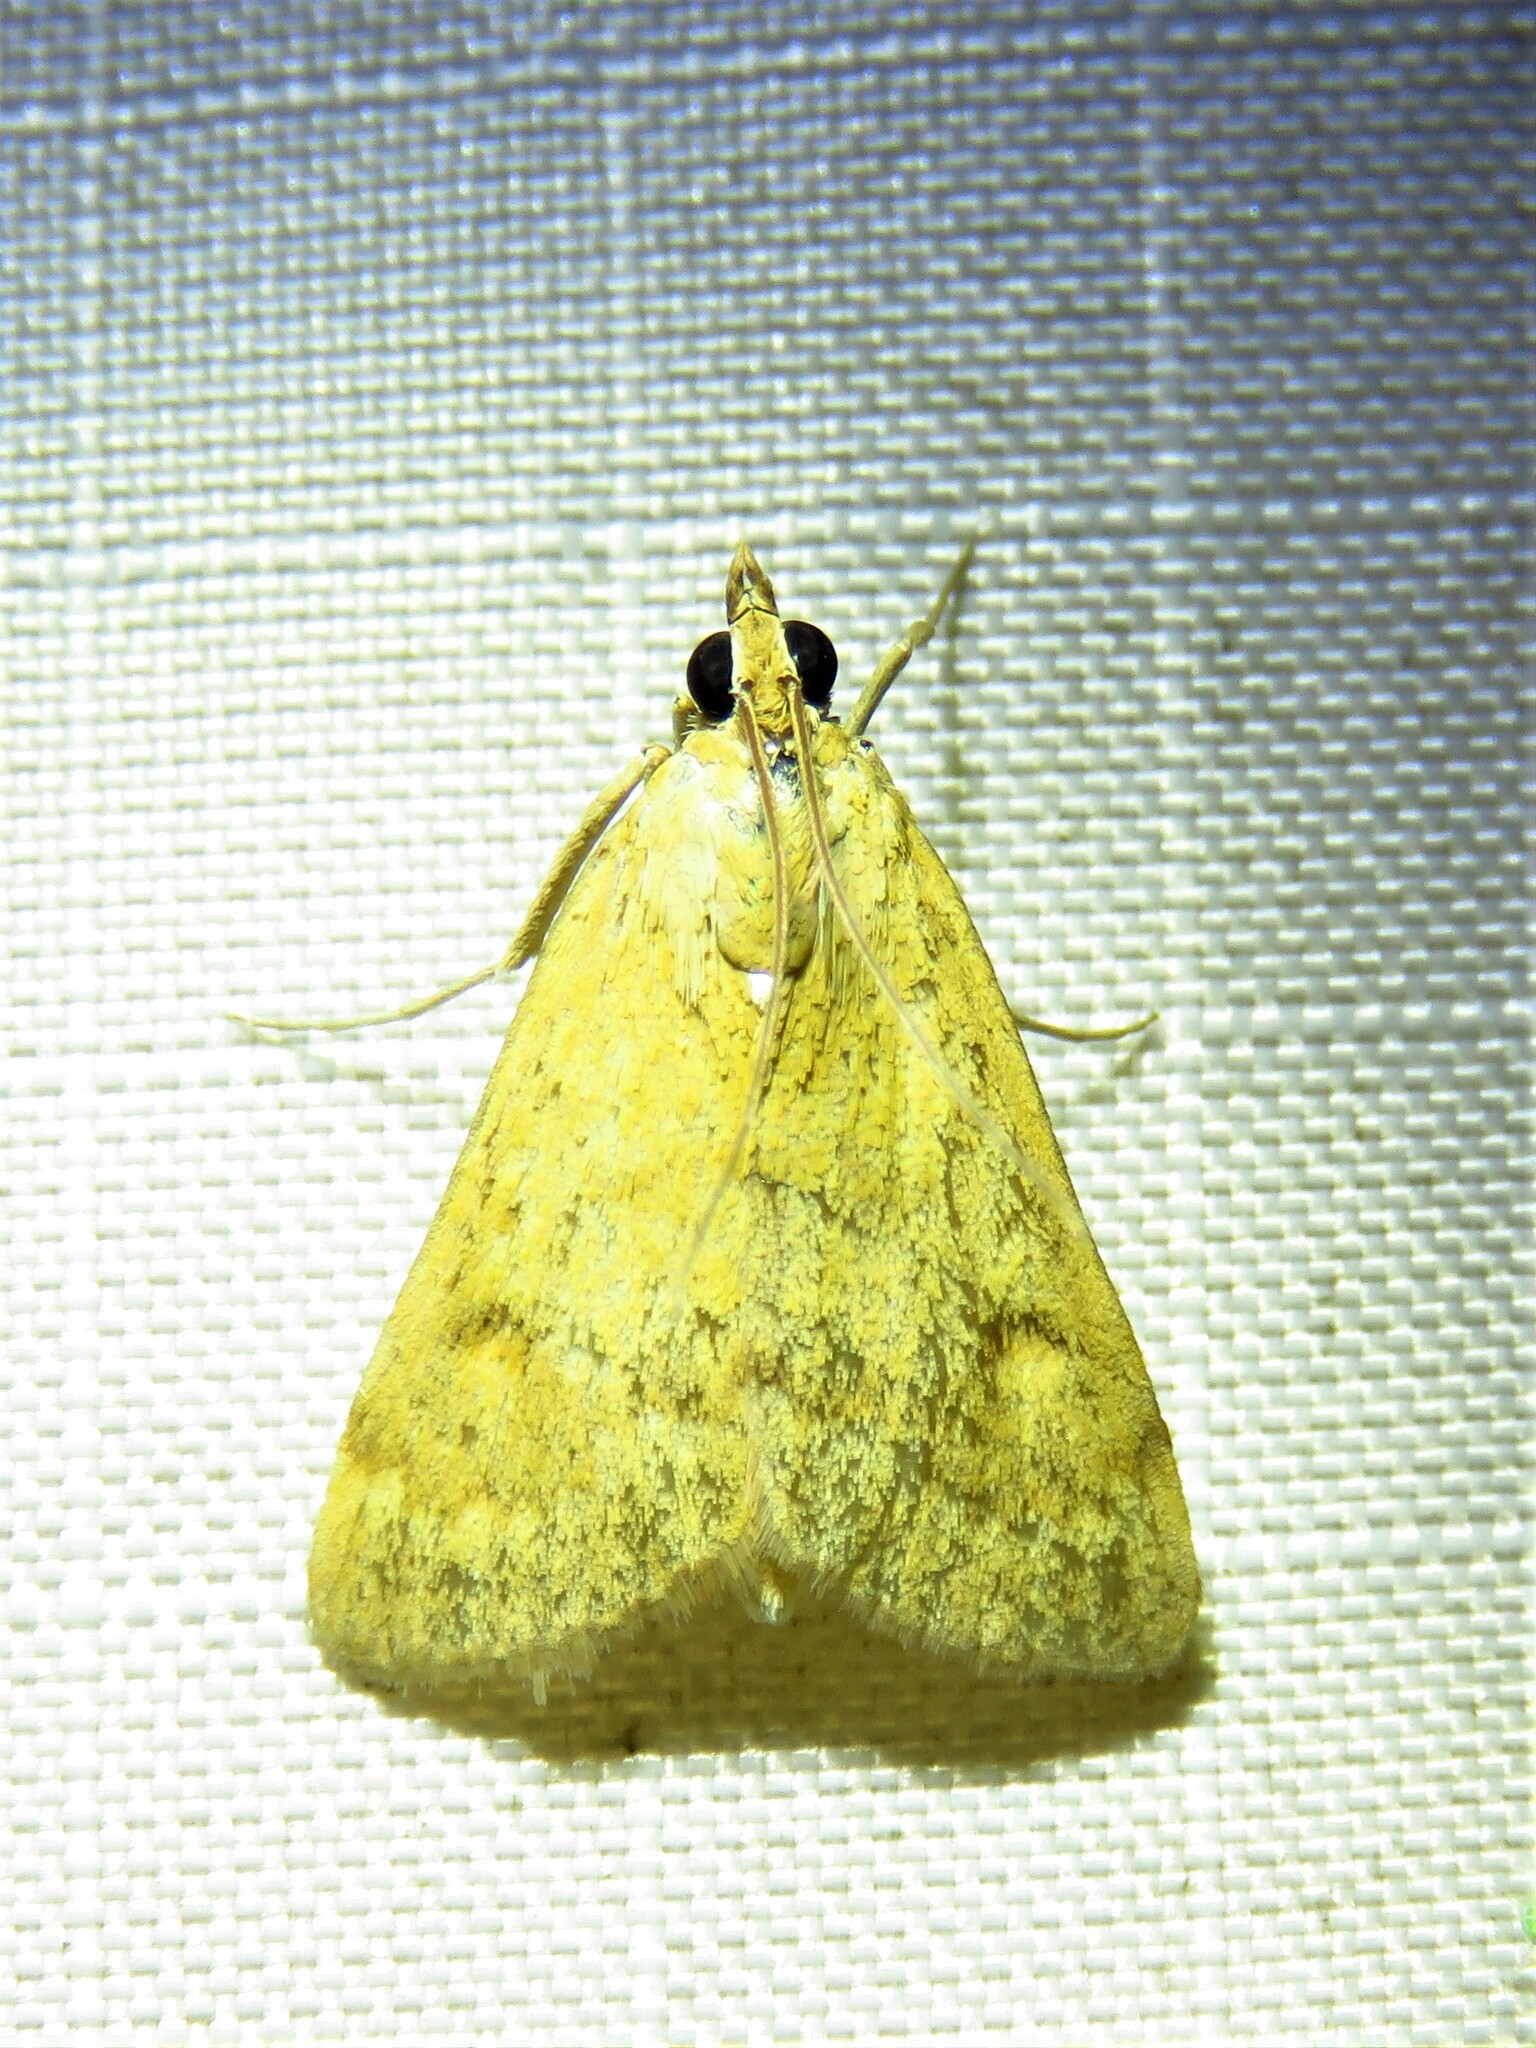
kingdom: Animalia
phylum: Arthropoda
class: Insecta
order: Lepidoptera
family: Crambidae
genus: Achyra
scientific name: Achyra rantalis
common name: Garden webworm
